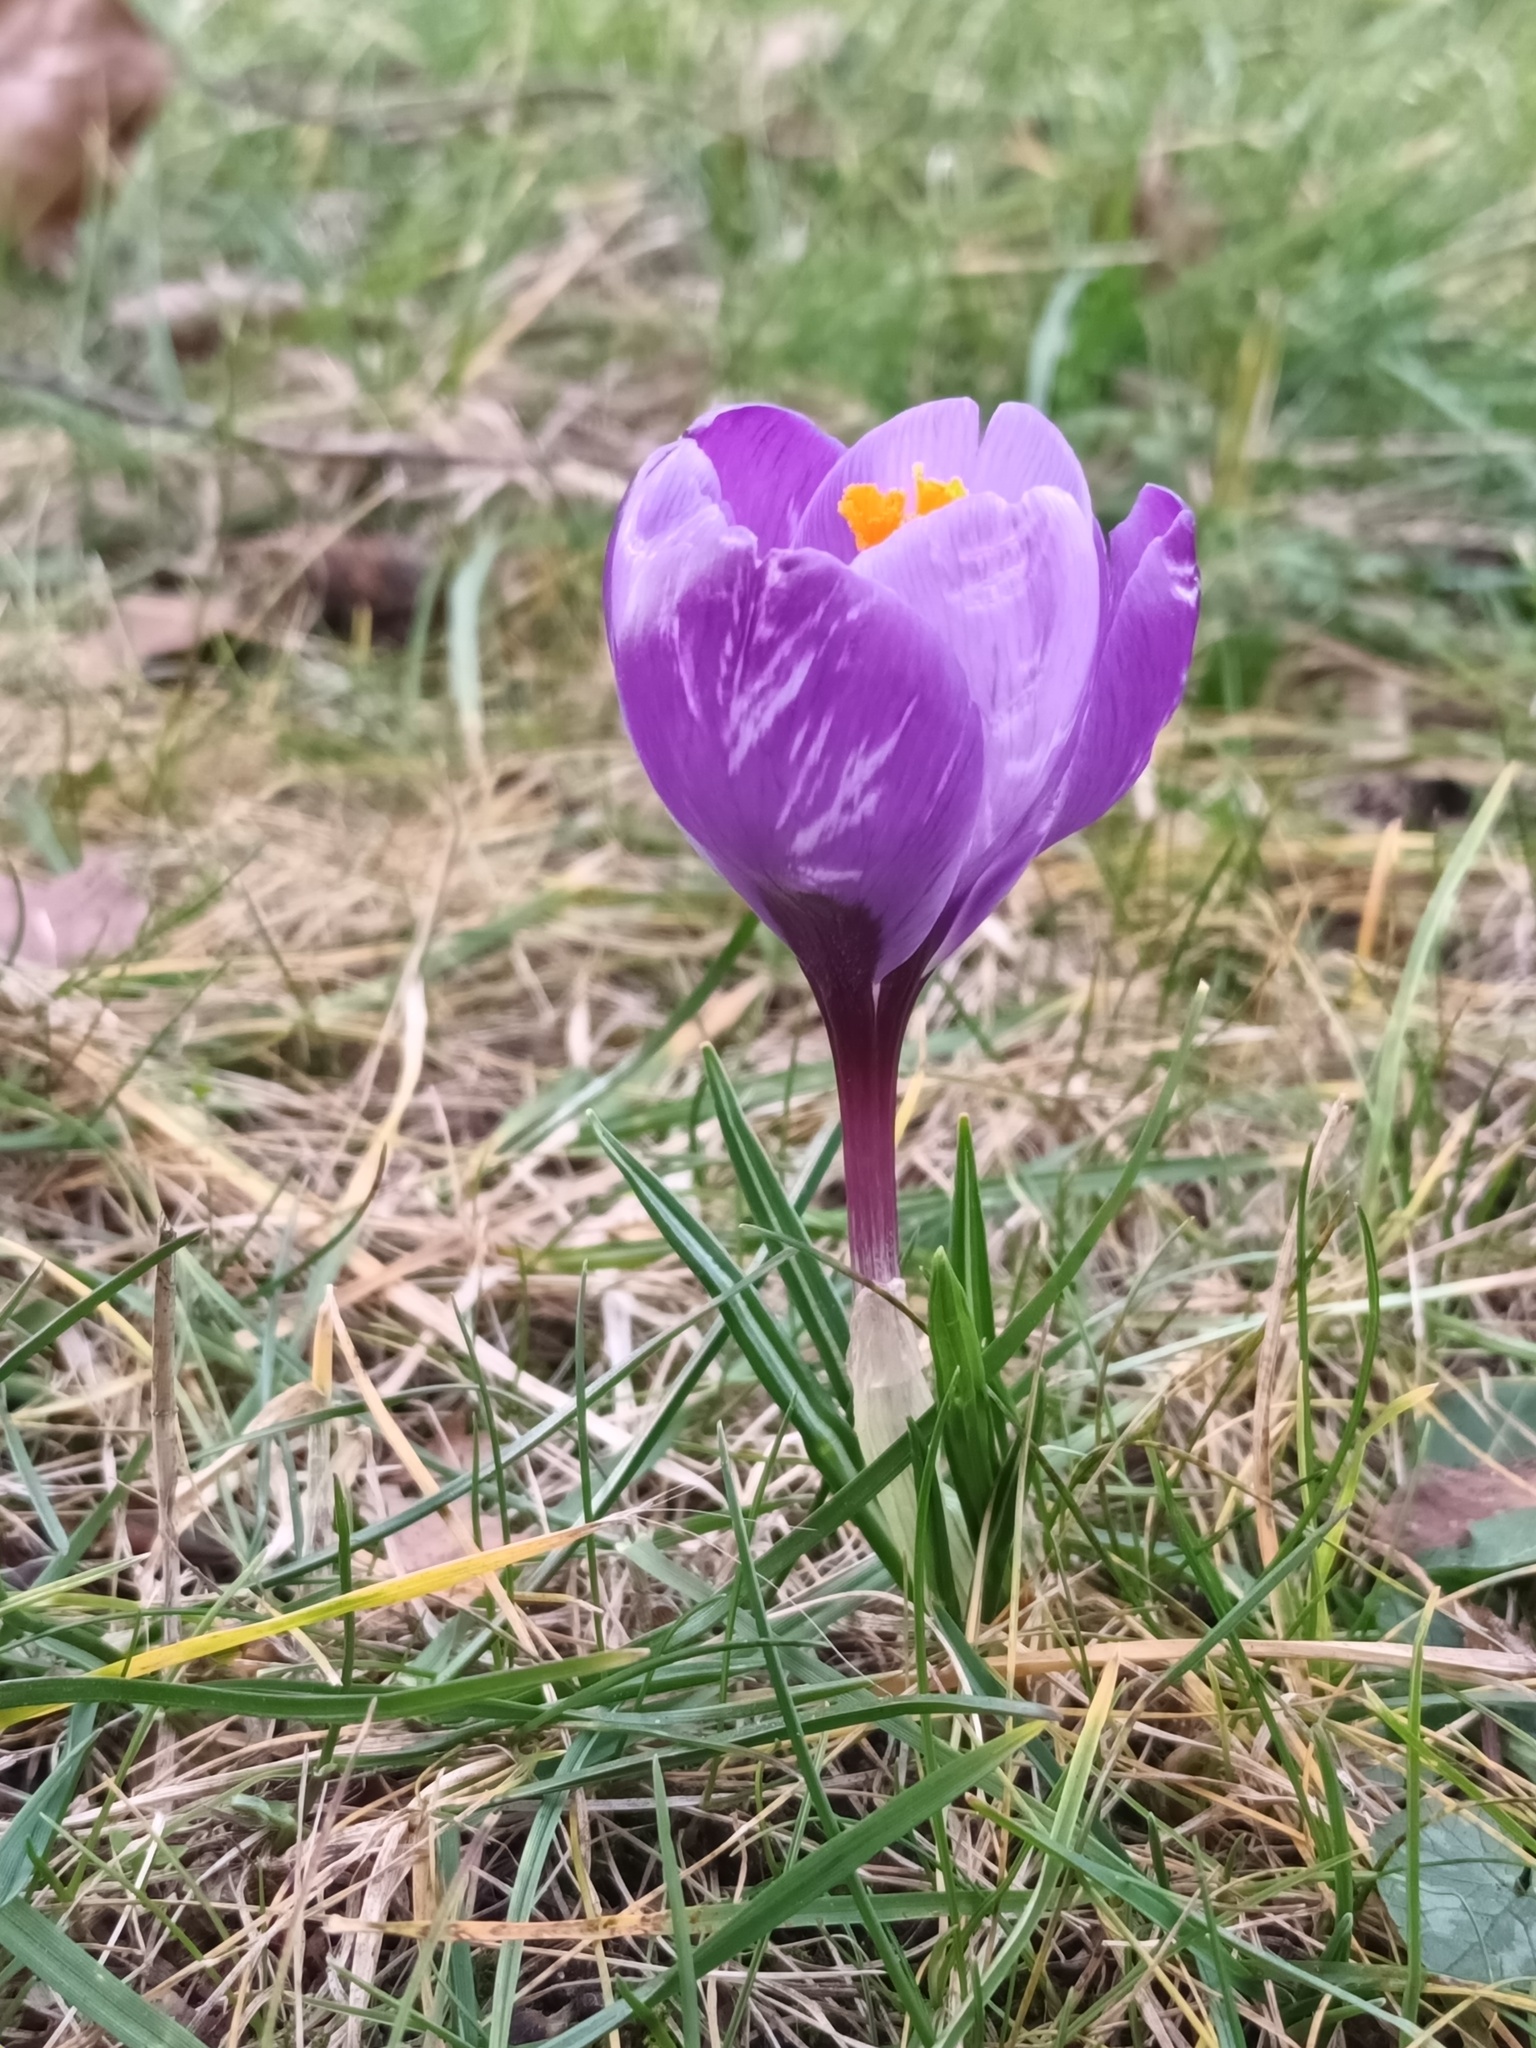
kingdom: Plantae
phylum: Tracheophyta
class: Liliopsida
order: Asparagales
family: Iridaceae
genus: Crocus
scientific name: Crocus neapolitanus
